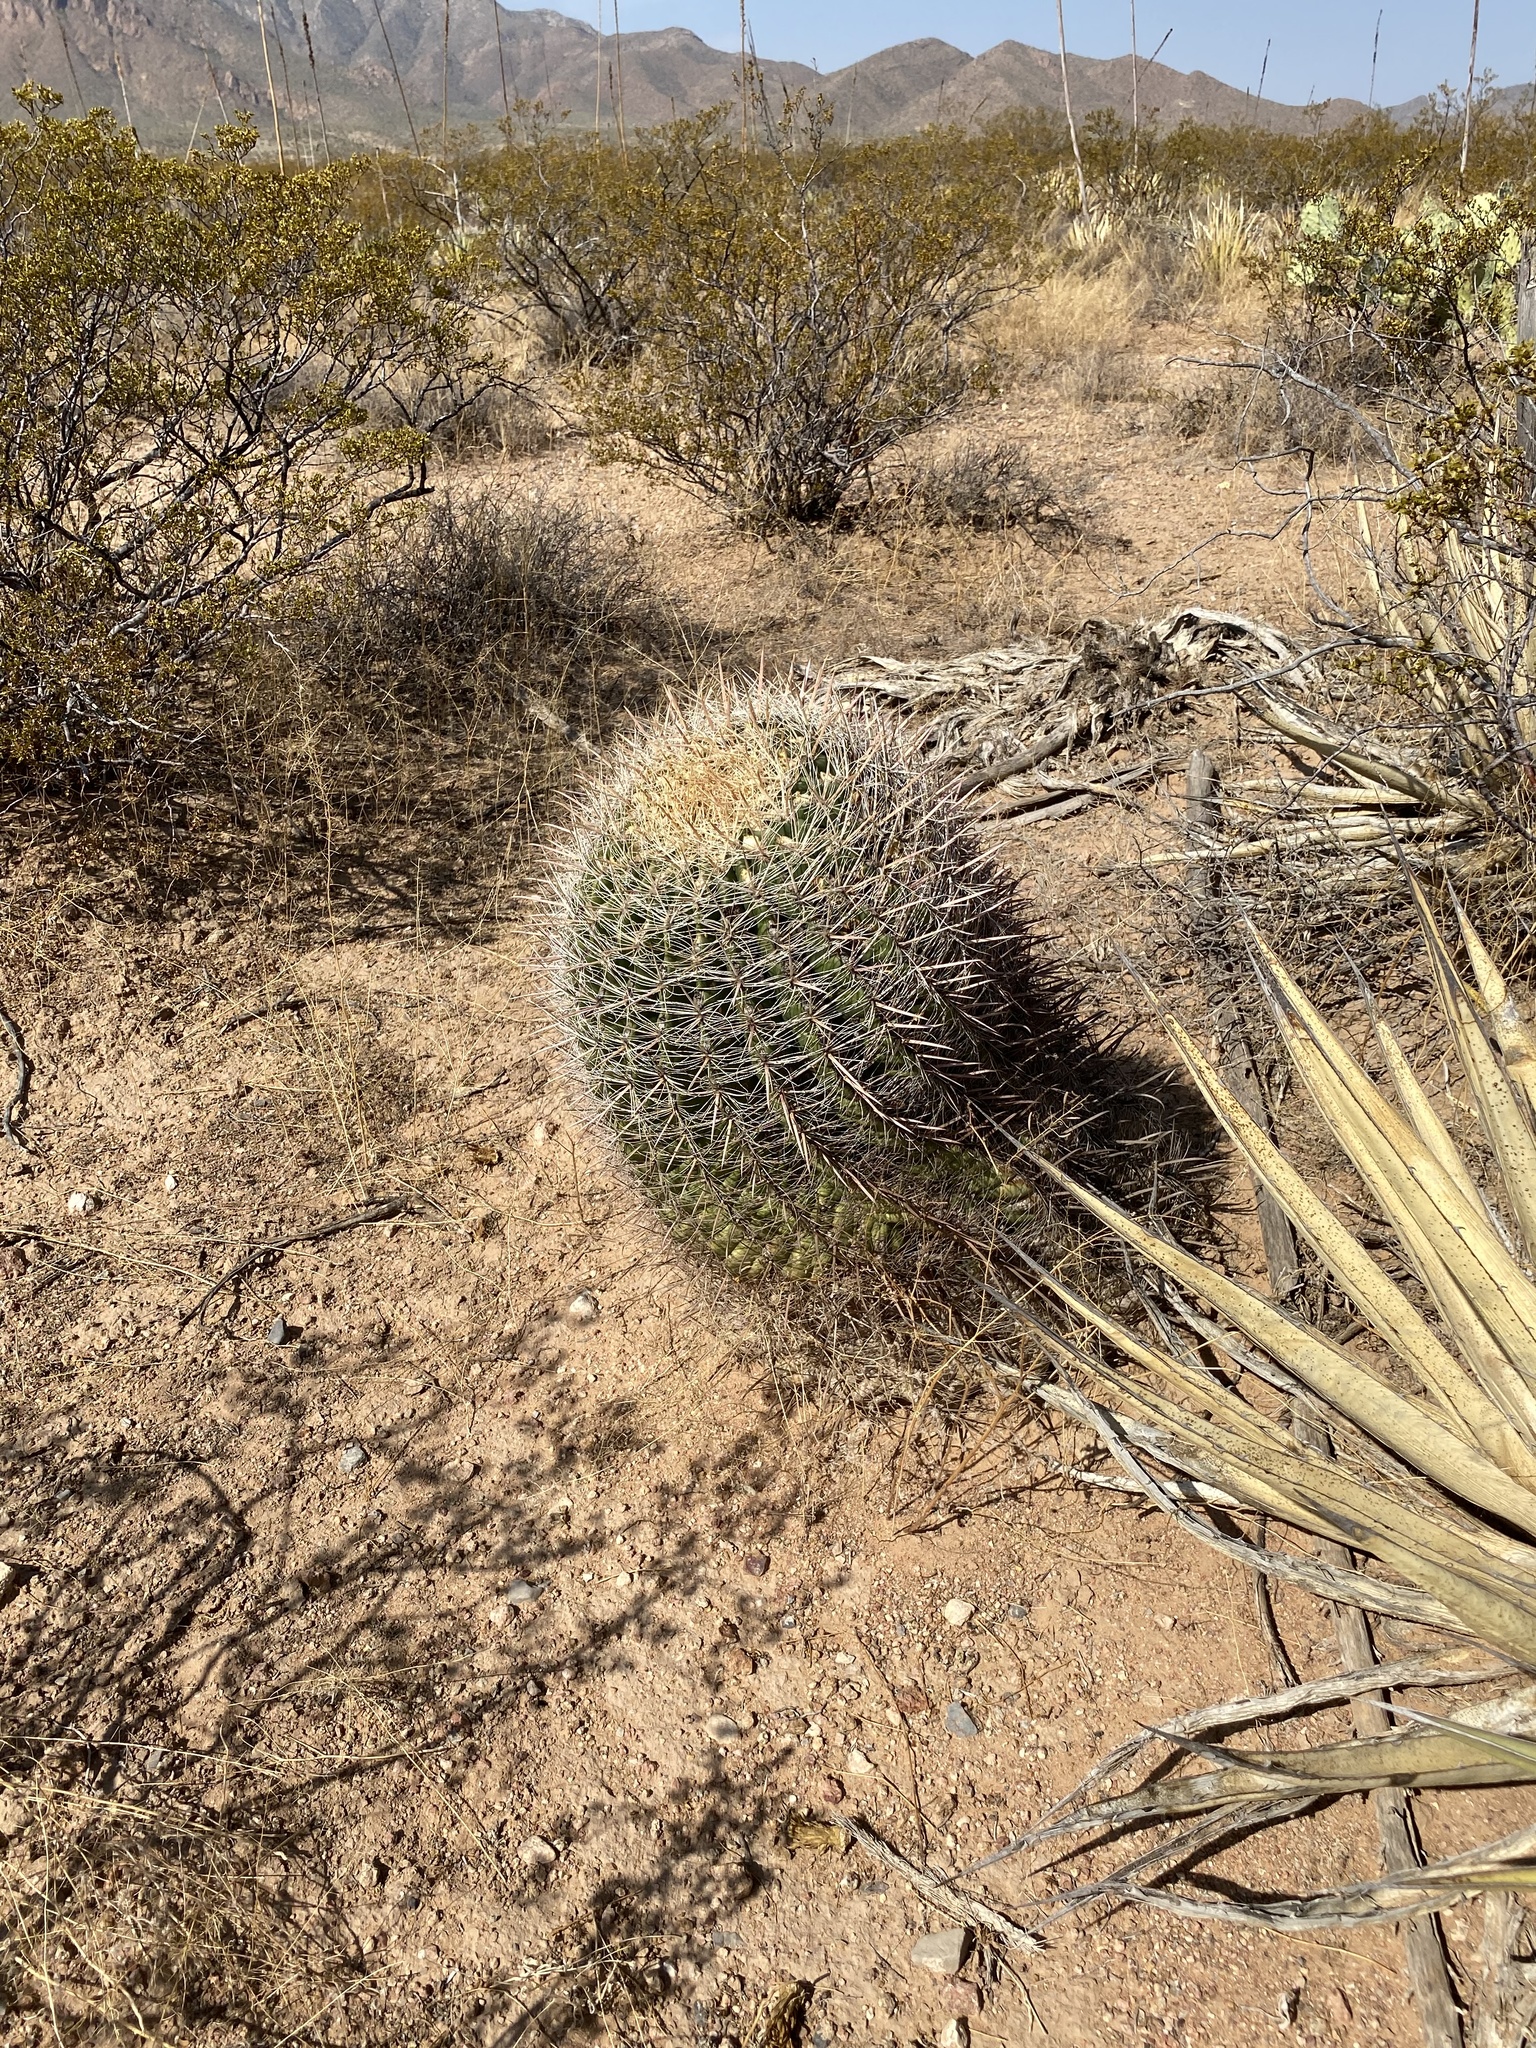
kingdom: Plantae
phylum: Tracheophyta
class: Magnoliopsida
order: Caryophyllales
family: Cactaceae
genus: Ferocactus
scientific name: Ferocactus wislizeni
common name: Candy barrel cactus
